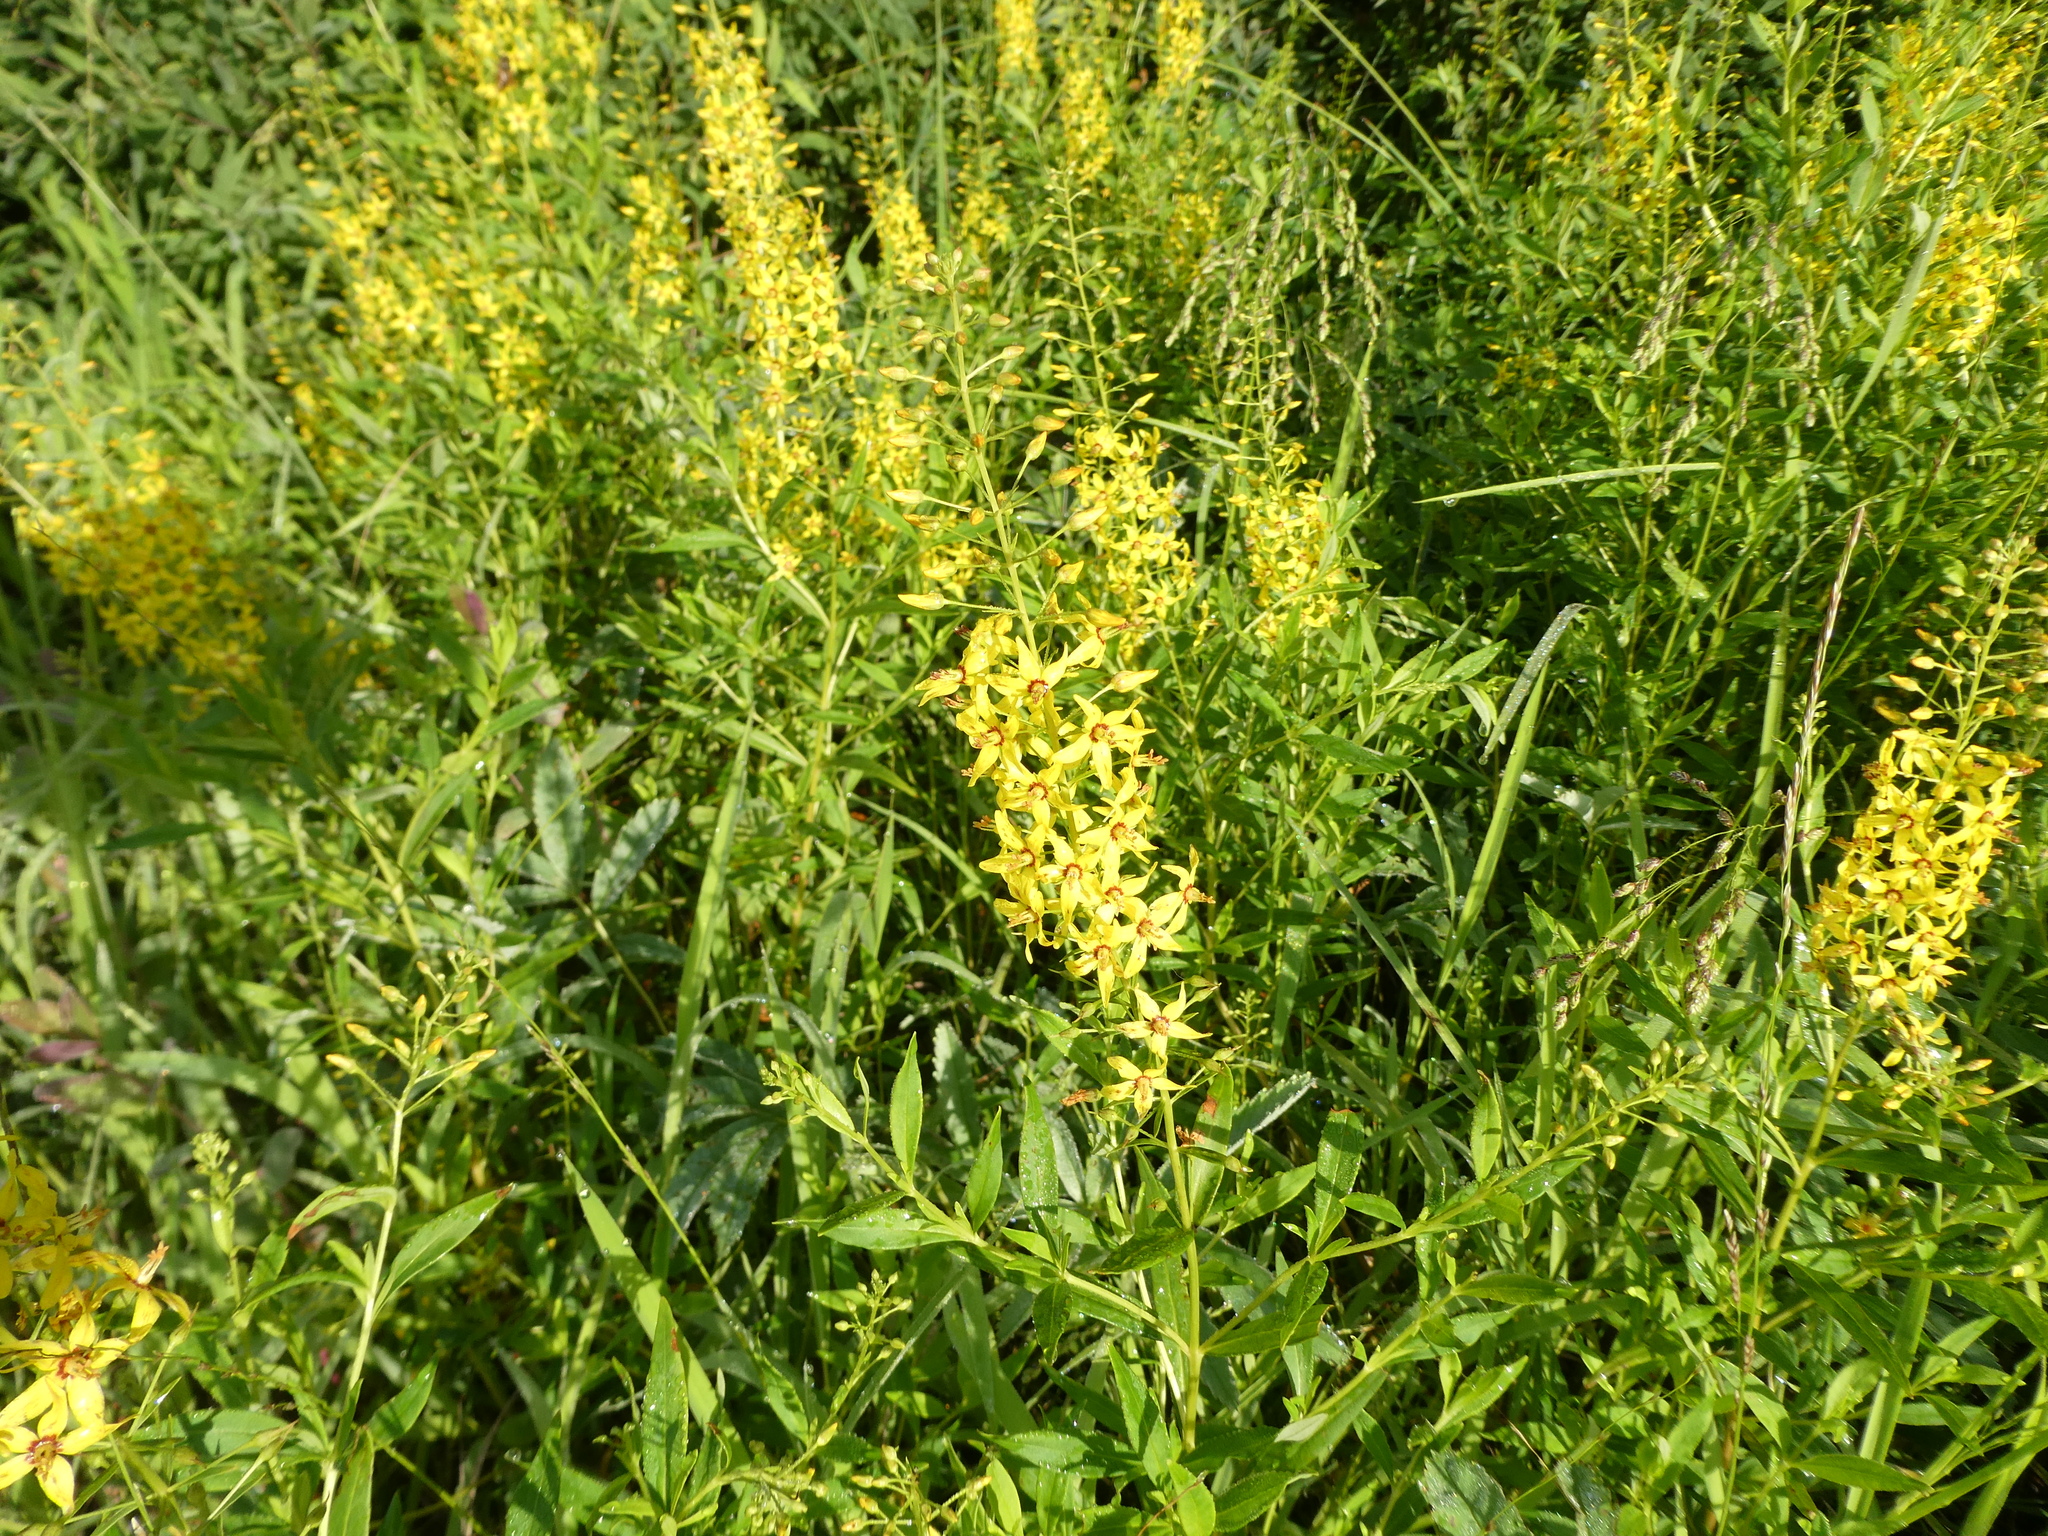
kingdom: Plantae
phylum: Tracheophyta
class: Magnoliopsida
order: Ericales
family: Primulaceae
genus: Lysimachia
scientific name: Lysimachia terrestris
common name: Lake loosestrife
